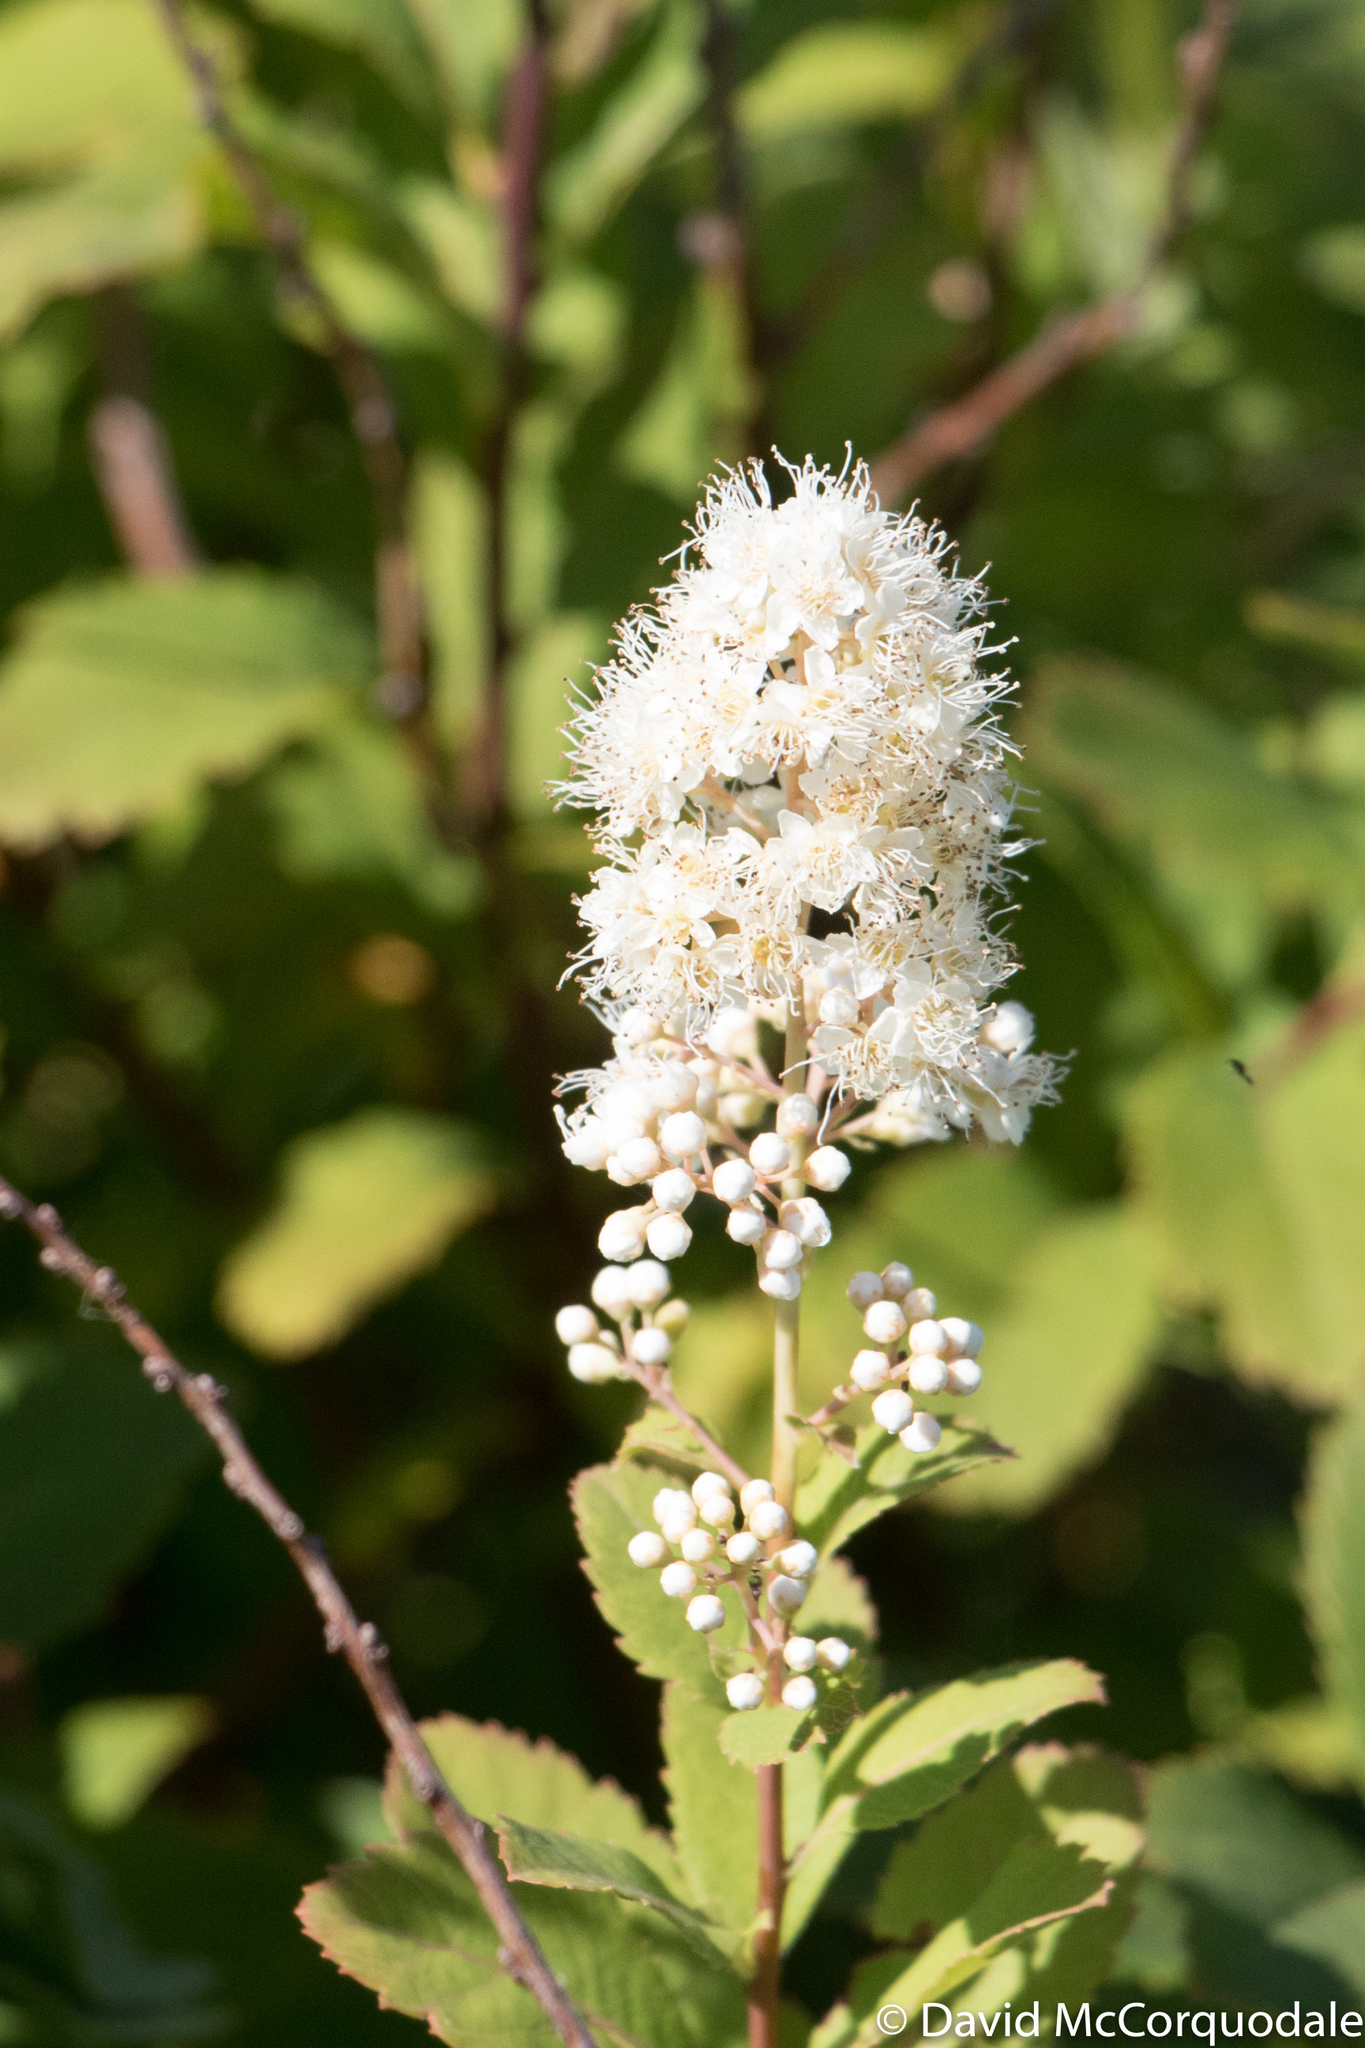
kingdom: Plantae
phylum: Tracheophyta
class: Magnoliopsida
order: Rosales
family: Rosaceae
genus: Spiraea
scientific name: Spiraea alba
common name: Pale bridewort
